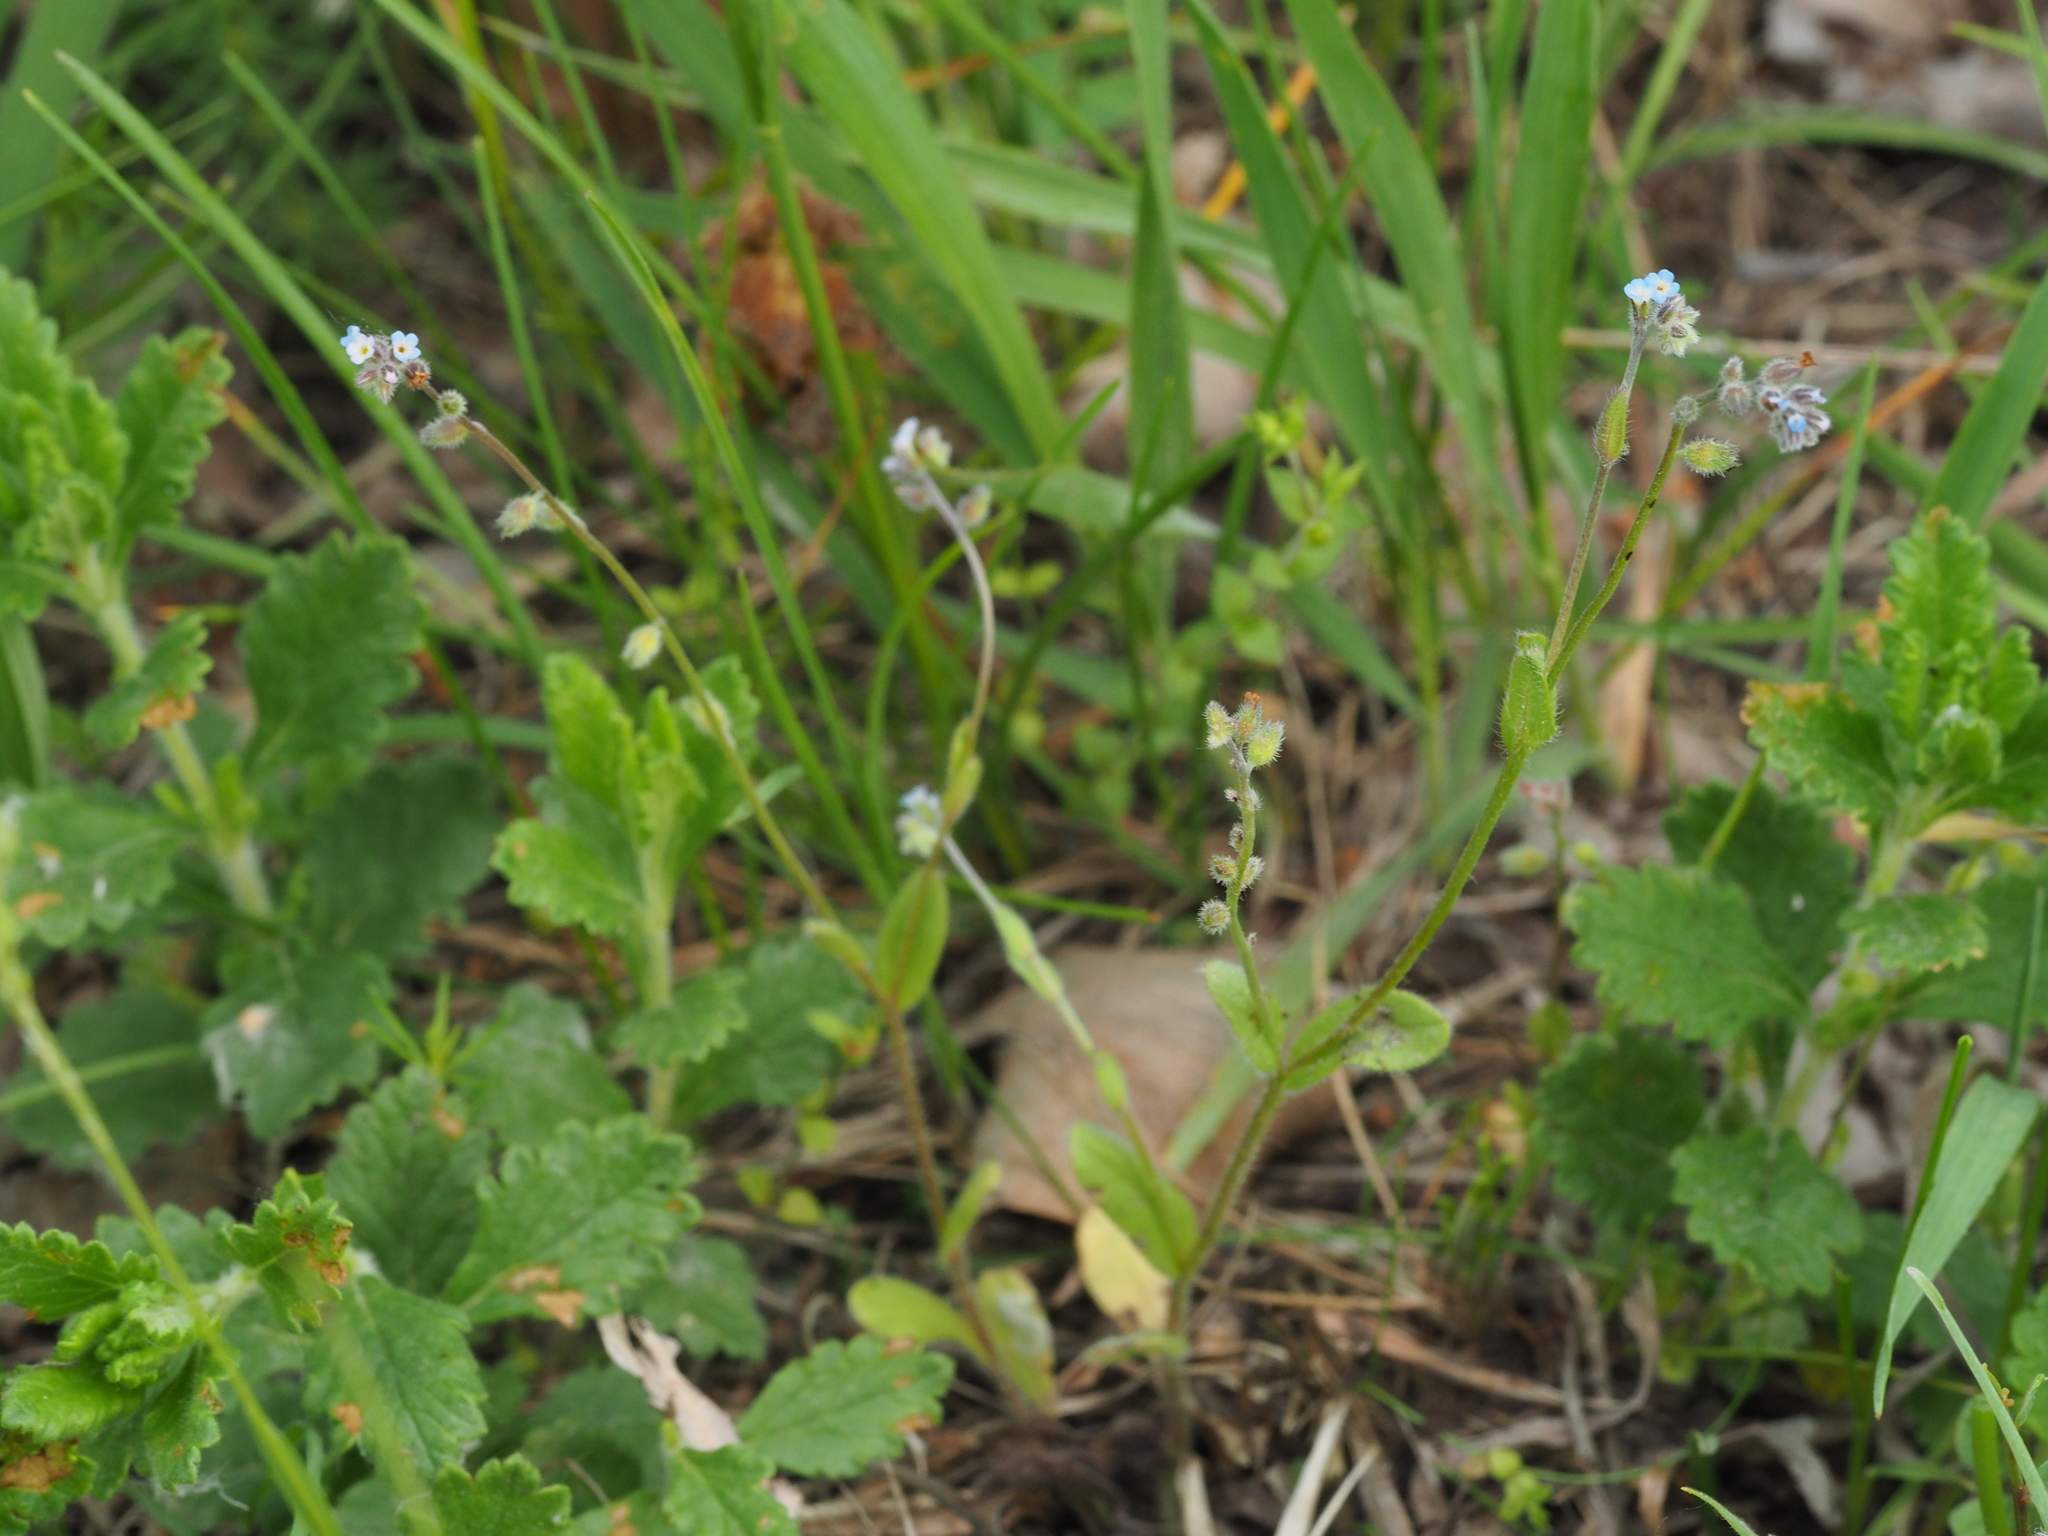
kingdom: Plantae
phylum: Tracheophyta
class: Magnoliopsida
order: Boraginales
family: Boraginaceae
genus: Myosotis
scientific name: Myosotis ramosissima
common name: Early forget-me-not
